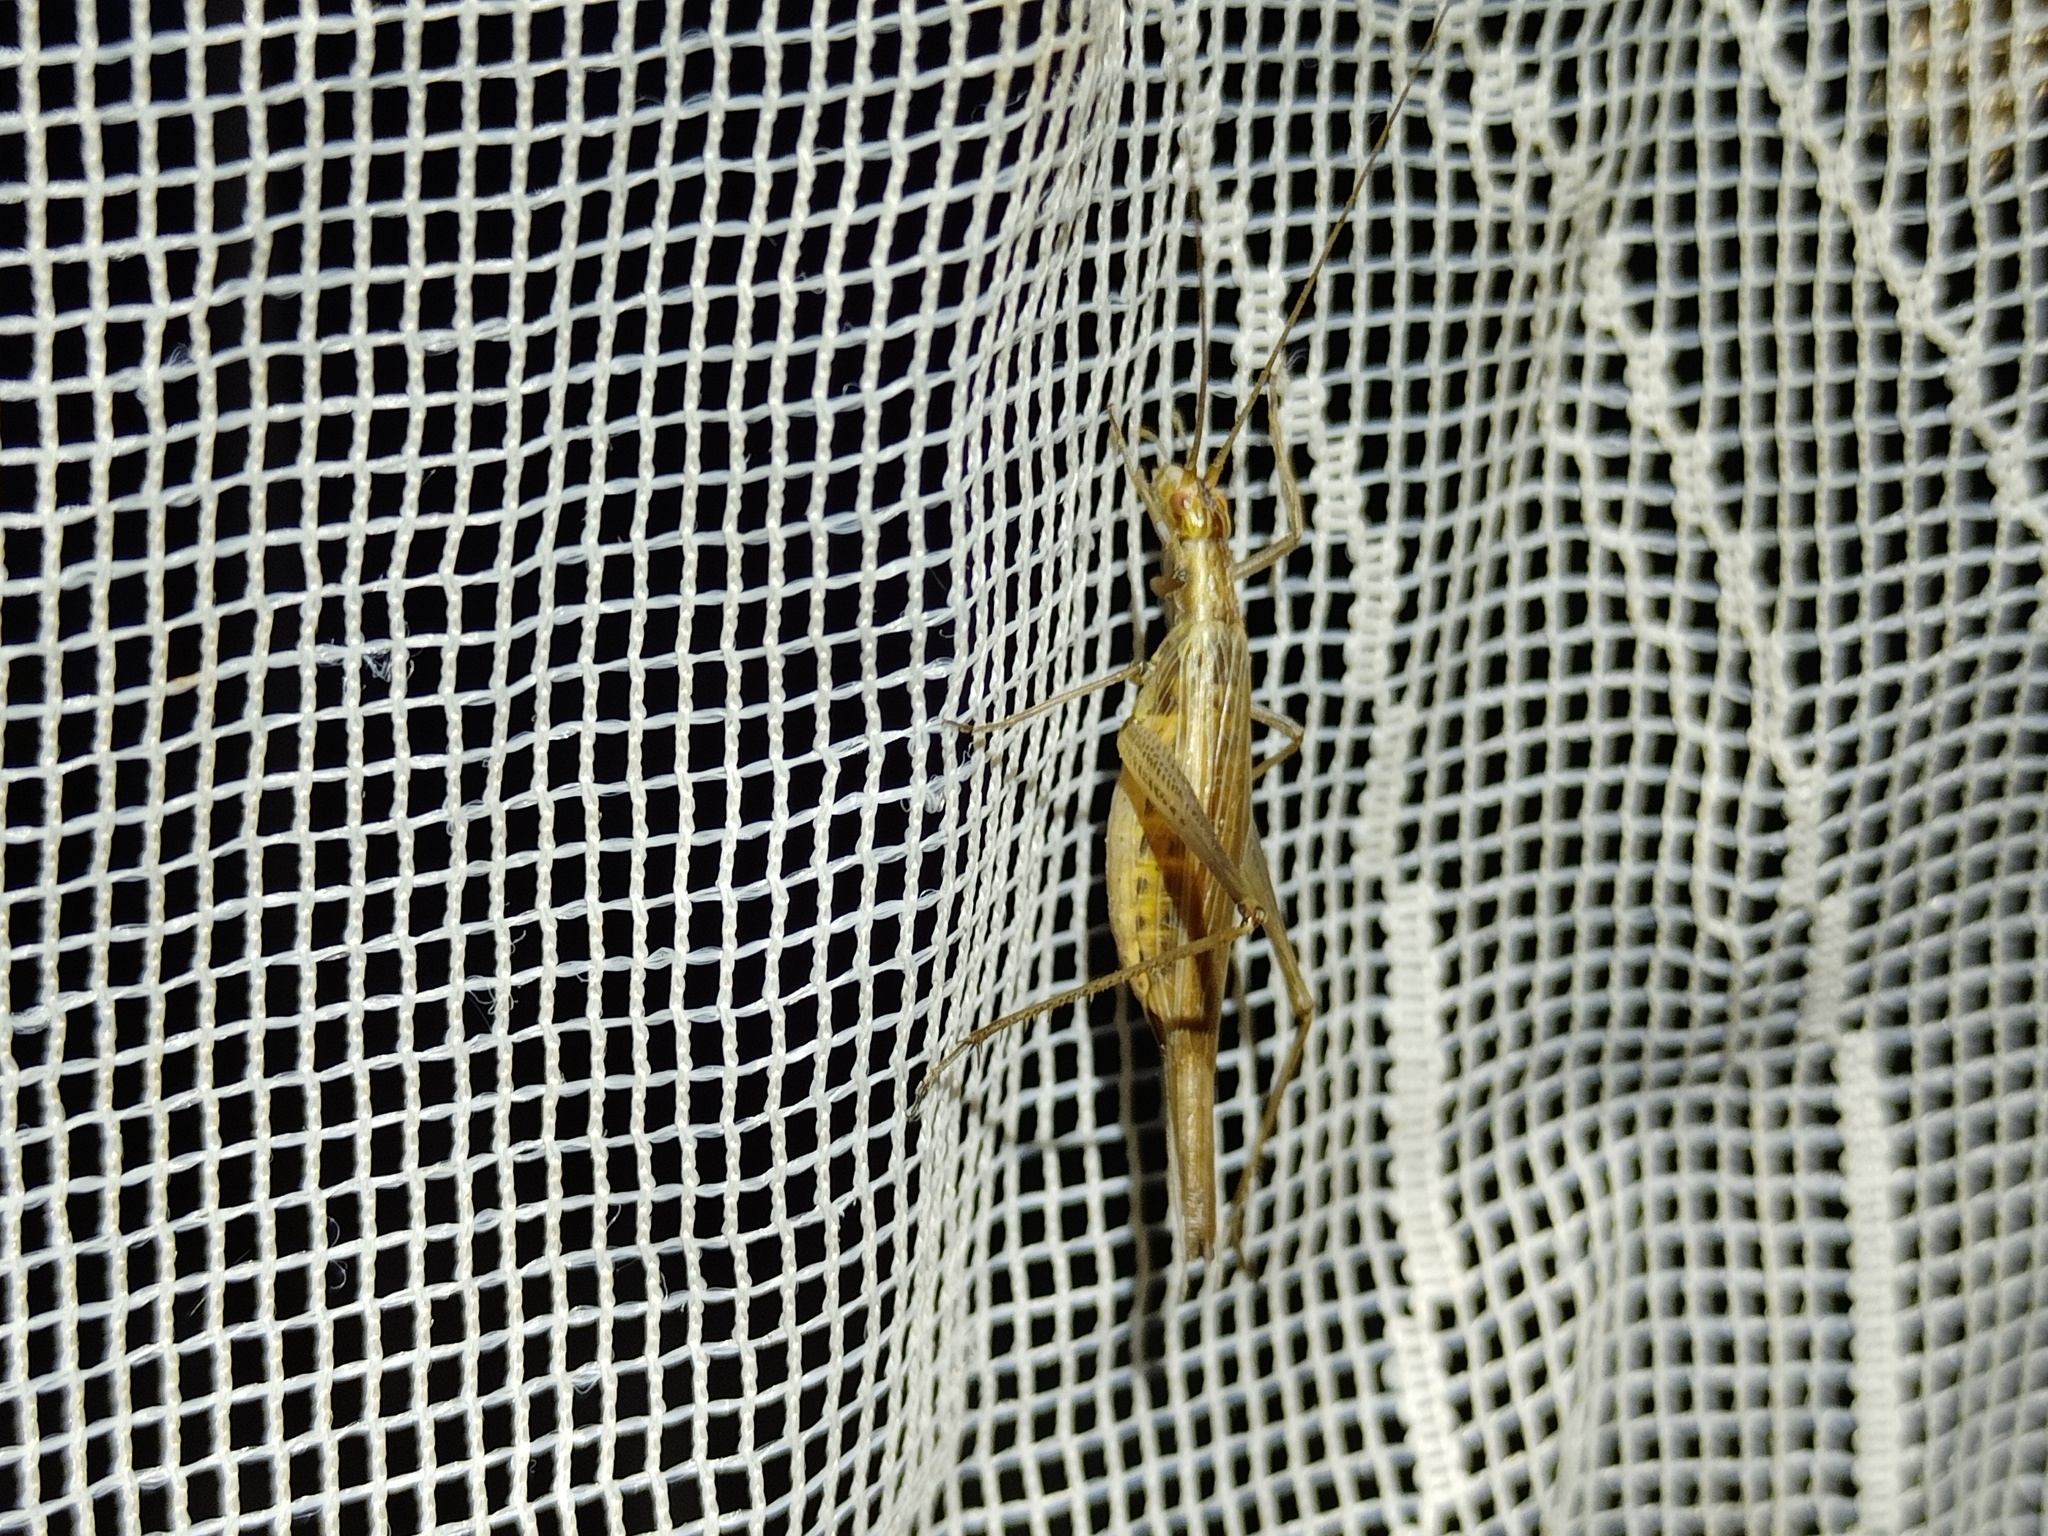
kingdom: Animalia
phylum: Arthropoda
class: Insecta
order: Orthoptera
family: Gryllidae
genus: Oecanthus
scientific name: Oecanthus pellucens
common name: Tree-cricket
